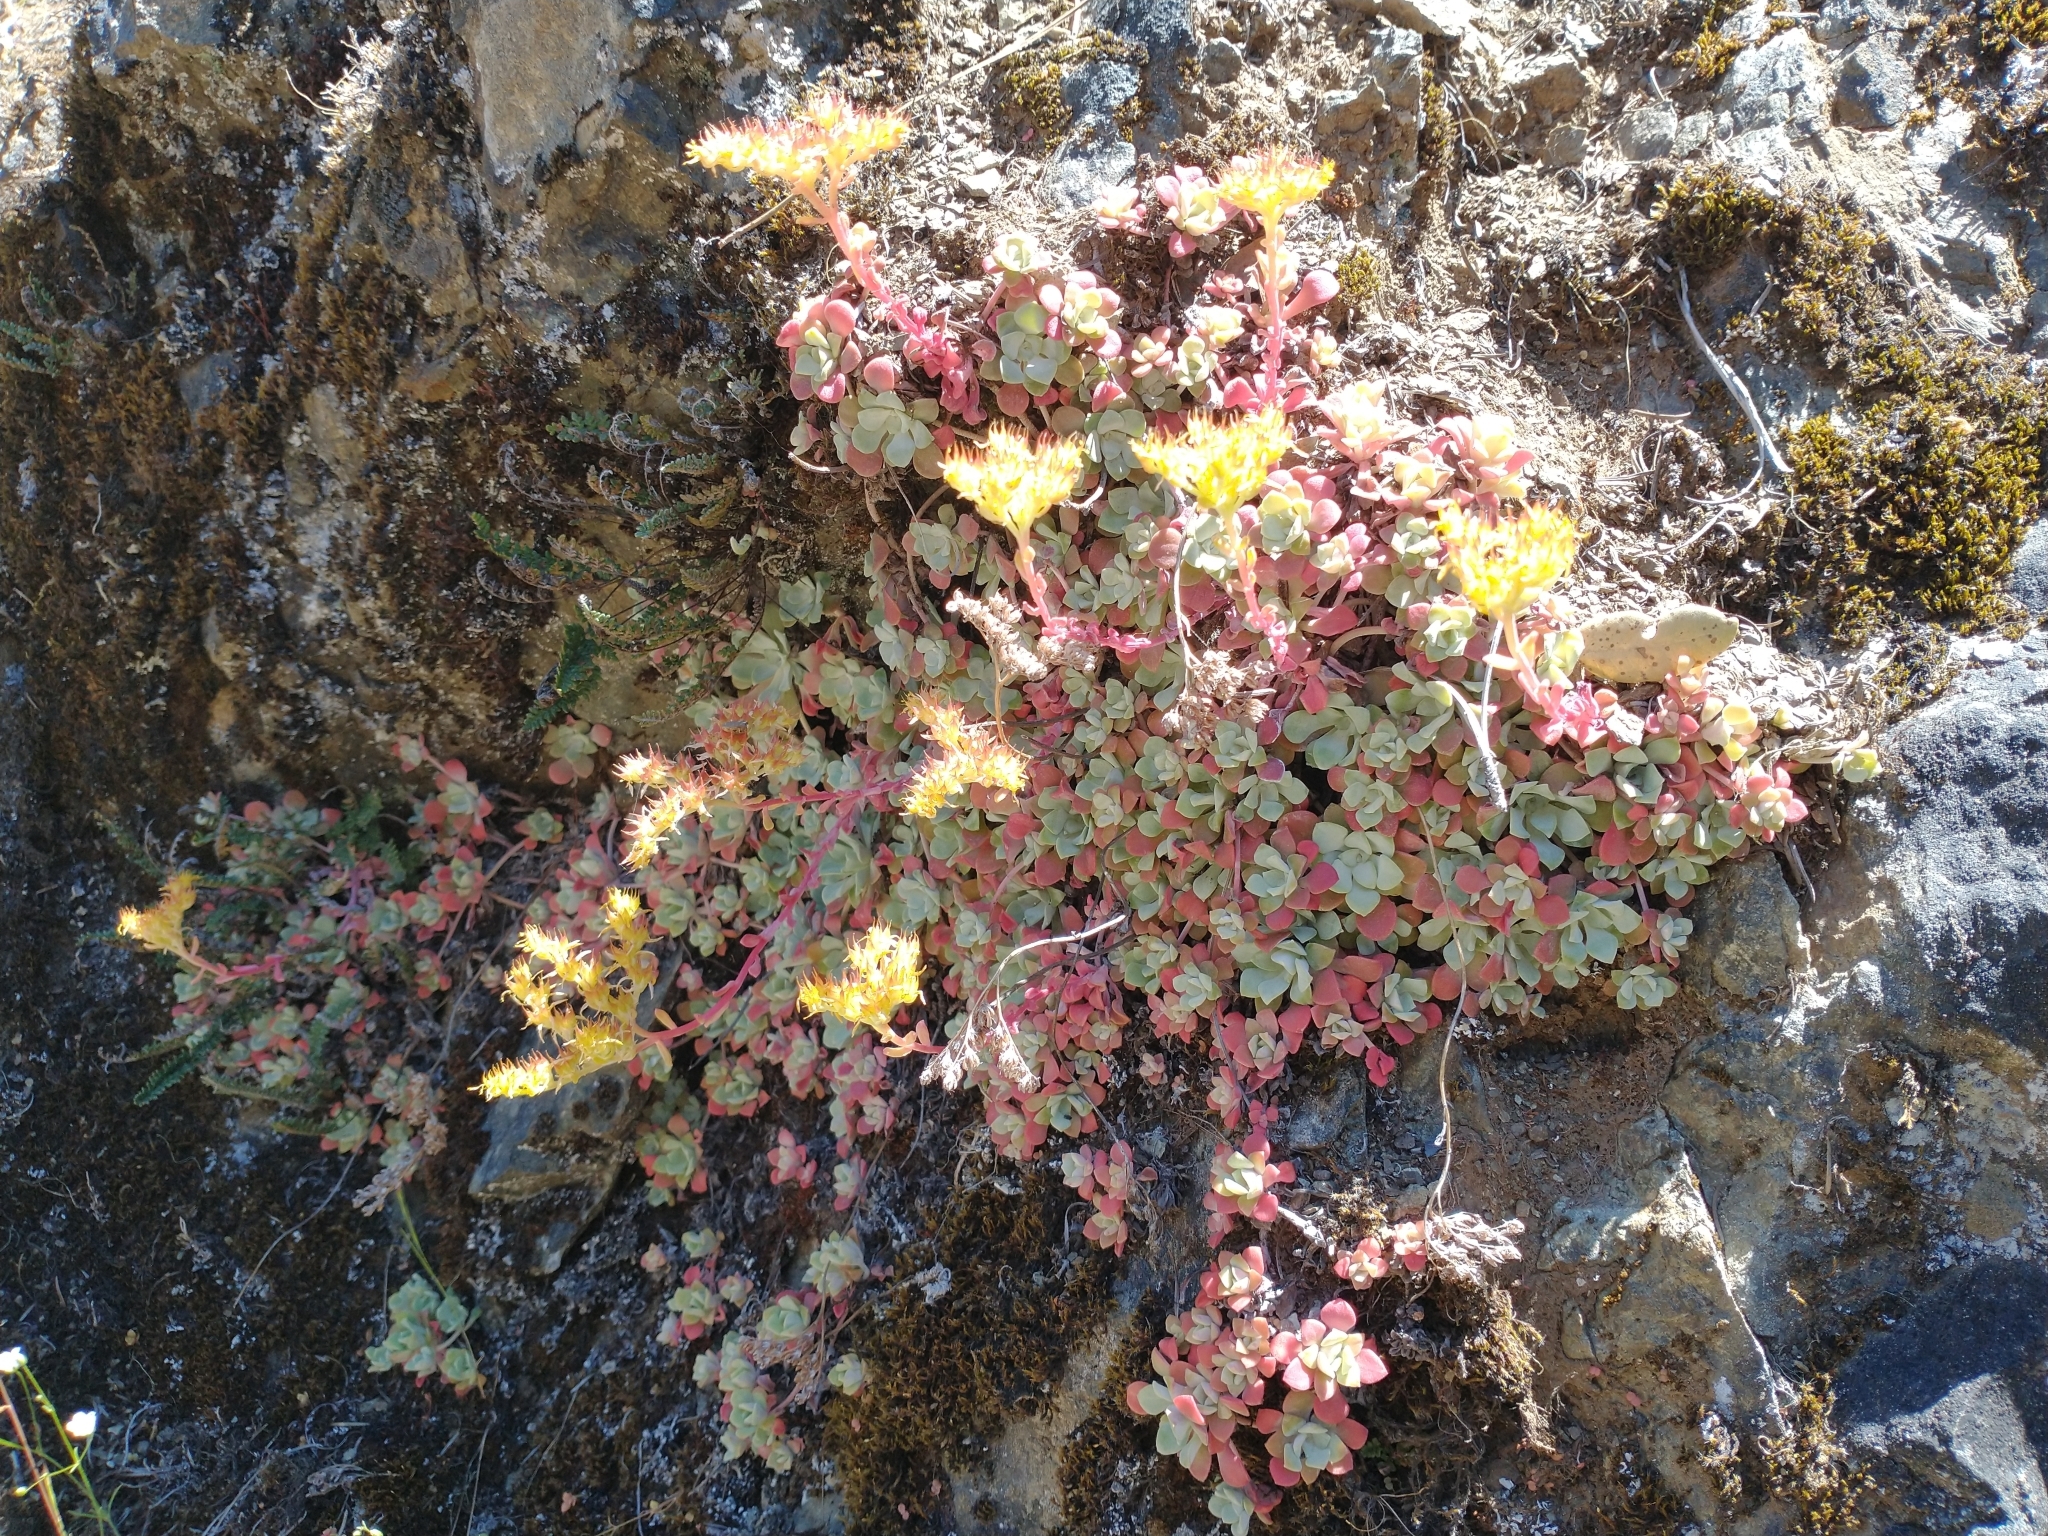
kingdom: Plantae
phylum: Tracheophyta
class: Magnoliopsida
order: Saxifragales
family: Crassulaceae
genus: Sedum
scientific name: Sedum spathulifolium
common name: Colorado stonecrop
